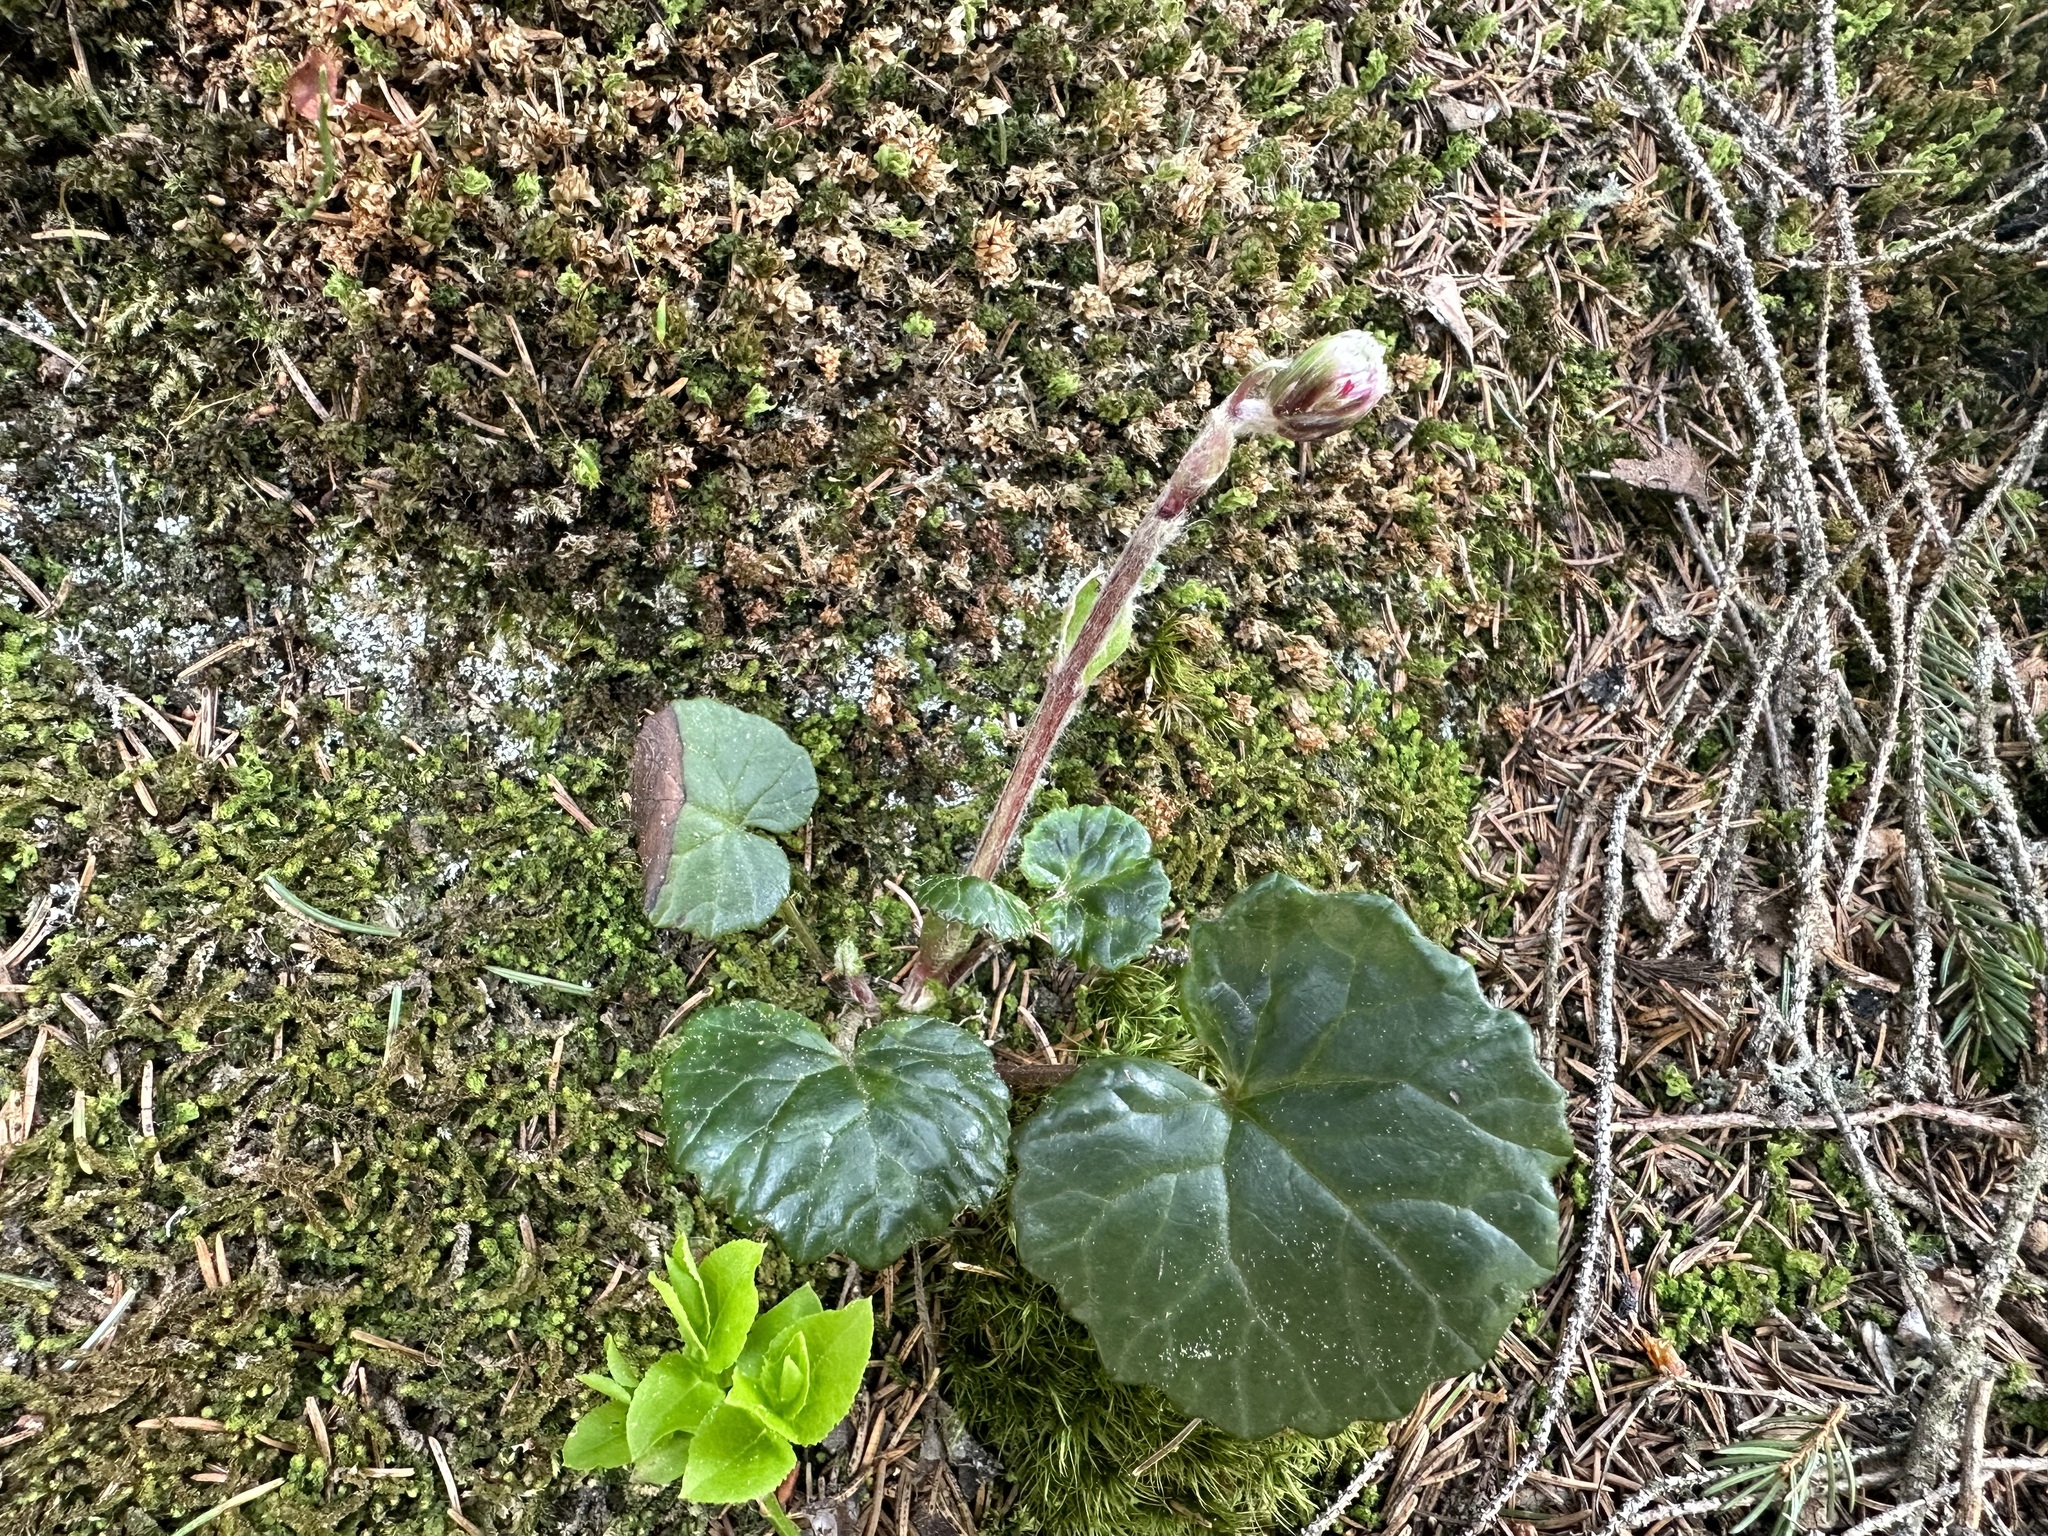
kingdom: Plantae
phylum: Tracheophyta
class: Magnoliopsida
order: Asterales
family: Asteraceae
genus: Homogyne
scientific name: Homogyne alpina
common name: Purple colt's-foot
